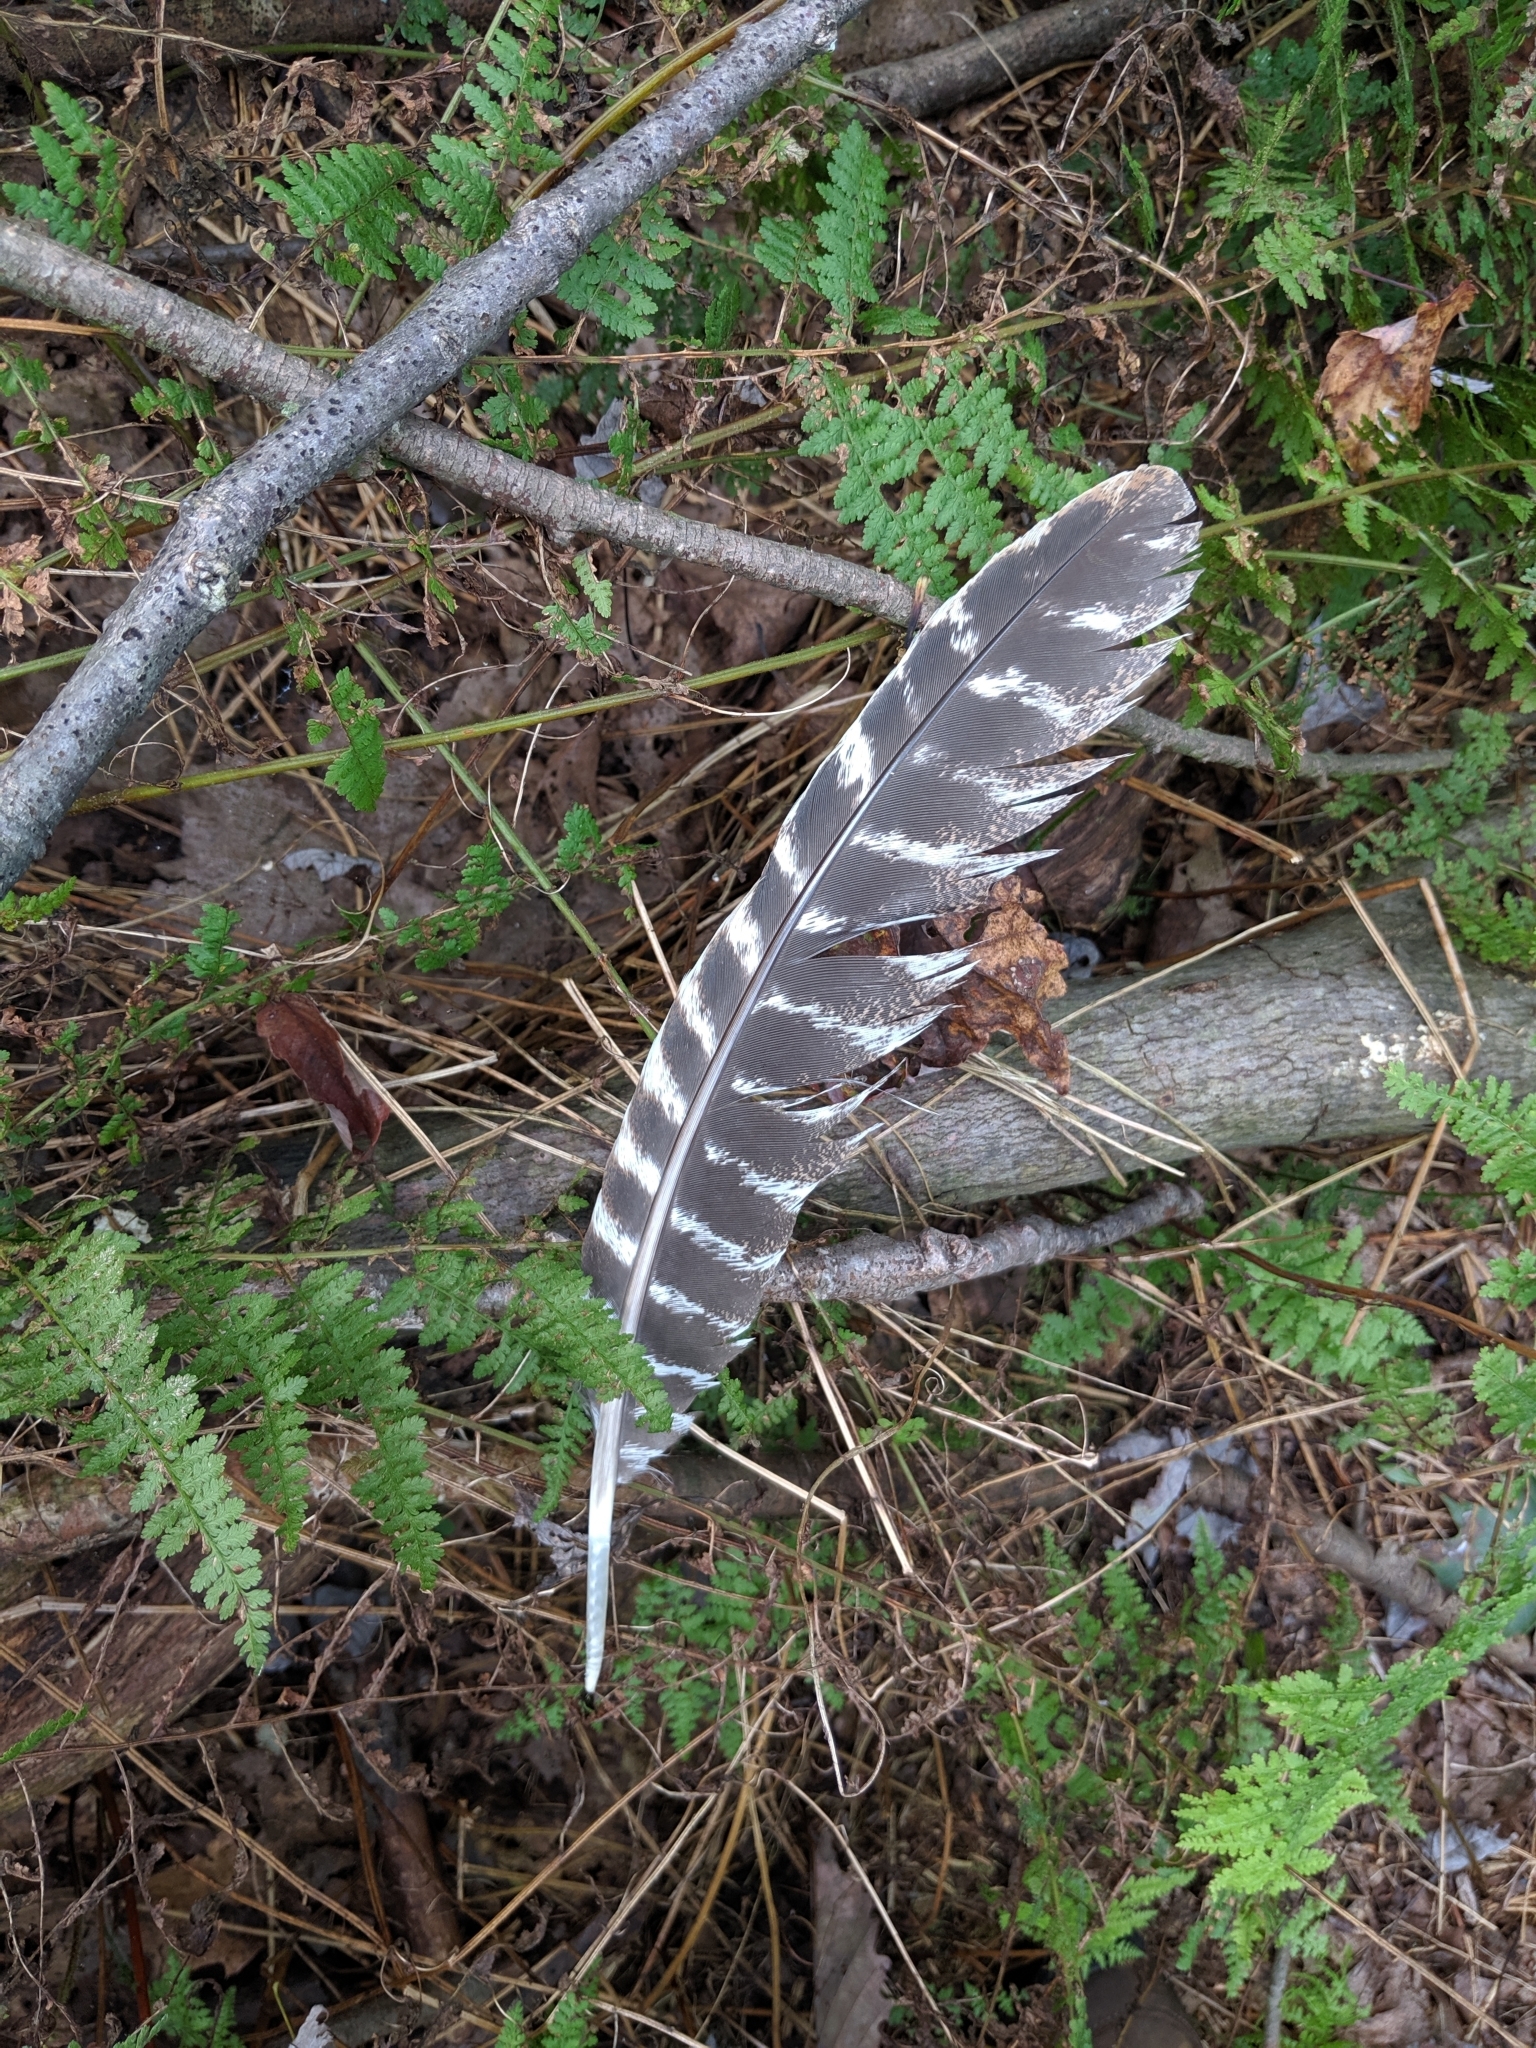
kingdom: Animalia
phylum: Chordata
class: Aves
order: Galliformes
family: Phasianidae
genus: Meleagris
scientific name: Meleagris gallopavo
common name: Wild turkey
